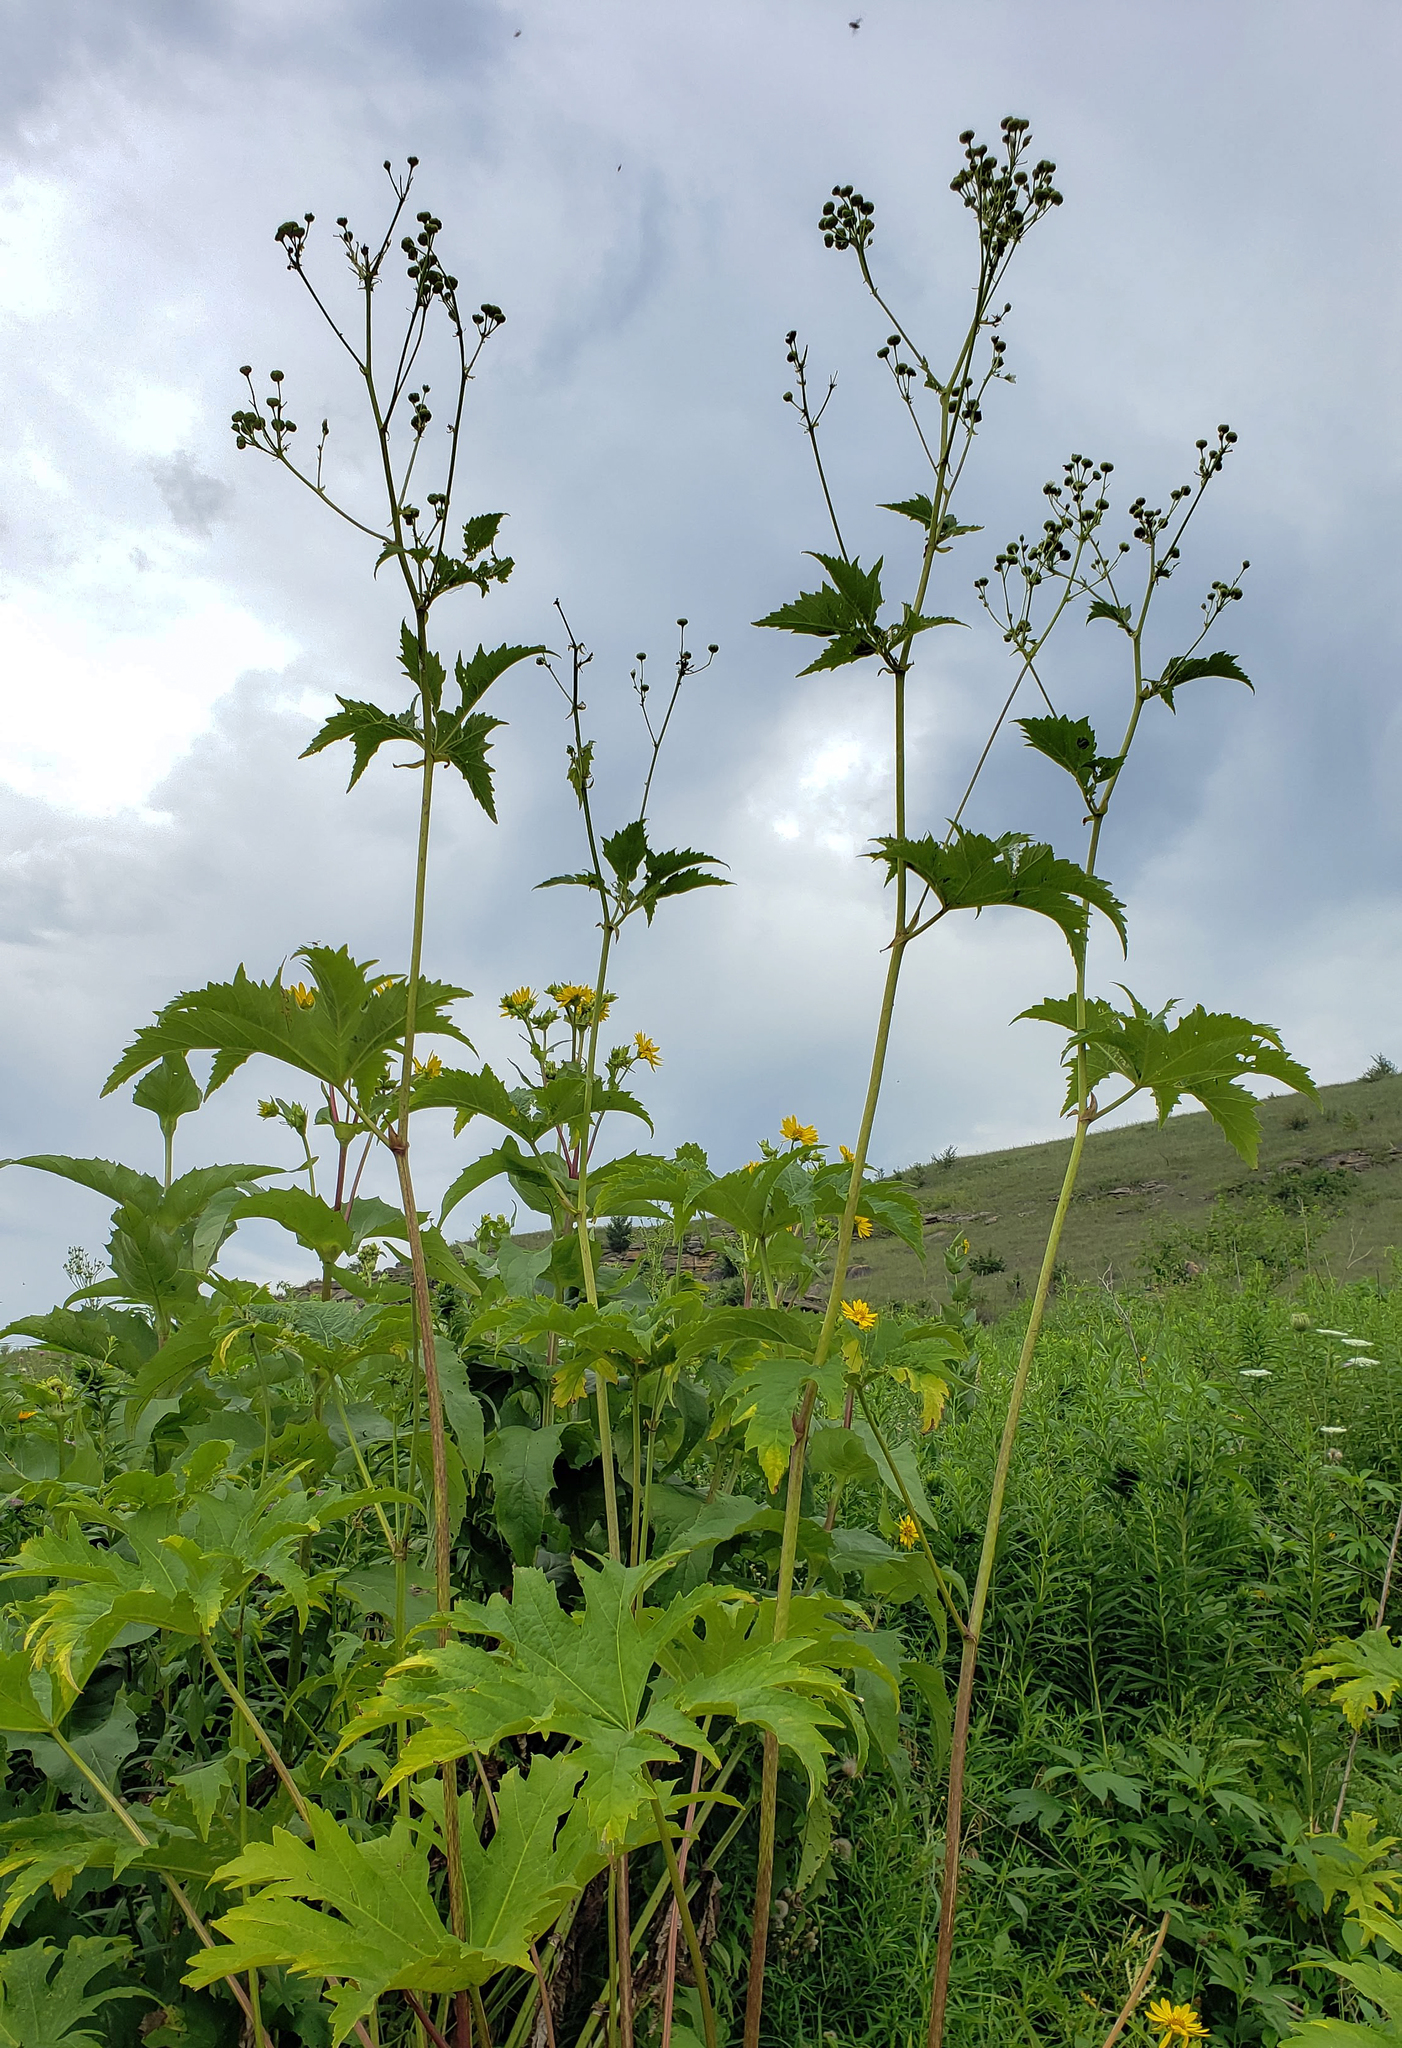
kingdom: Plantae
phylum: Tracheophyta
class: Magnoliopsida
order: Malvales
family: Malvaceae
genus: Napaea
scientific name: Napaea dioica
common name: Glade-mallow
